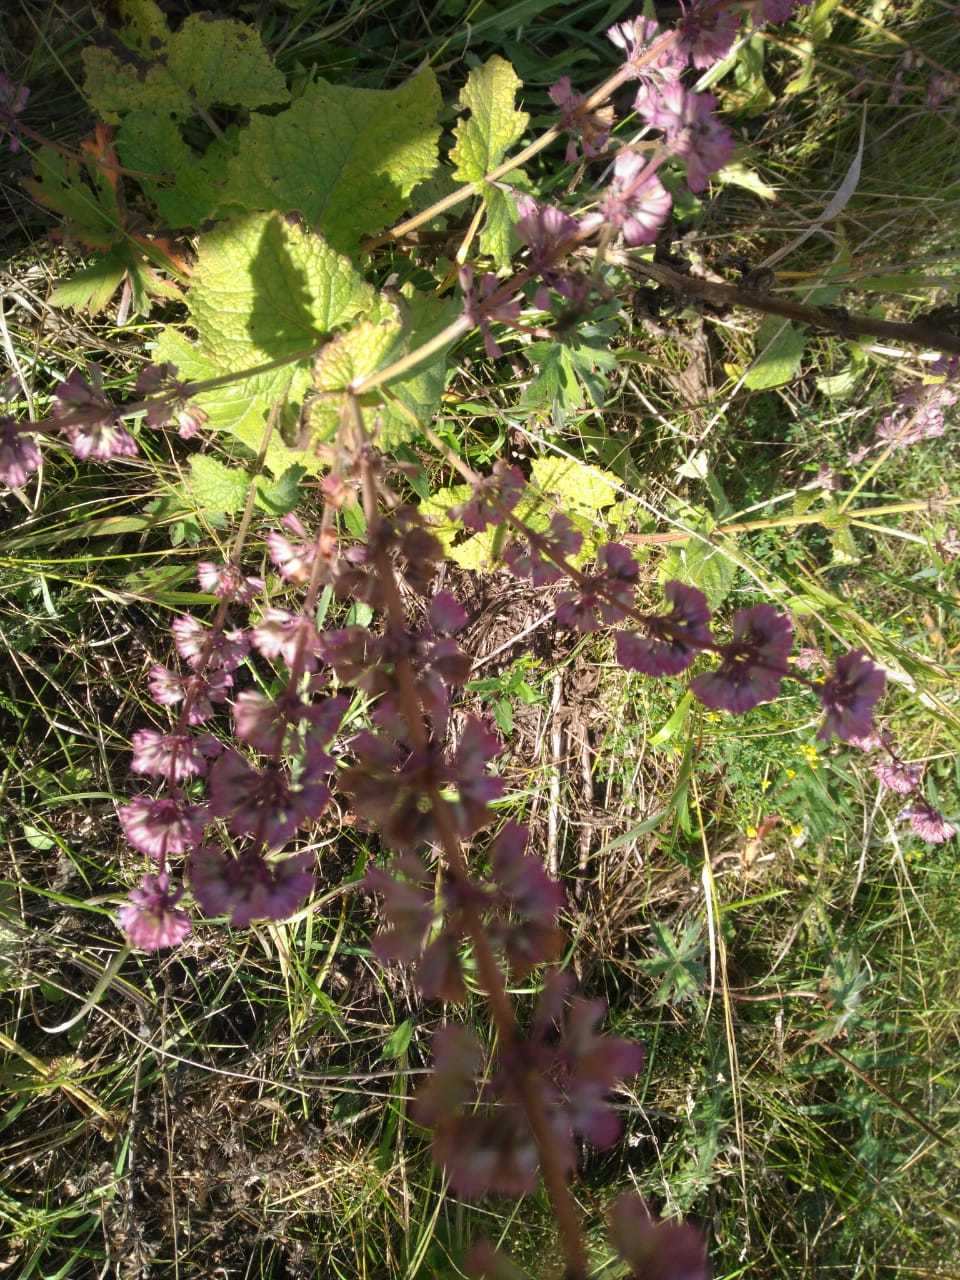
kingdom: Plantae
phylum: Tracheophyta
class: Magnoliopsida
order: Lamiales
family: Lamiaceae
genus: Salvia
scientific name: Salvia verticillata
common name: Whorled clary
